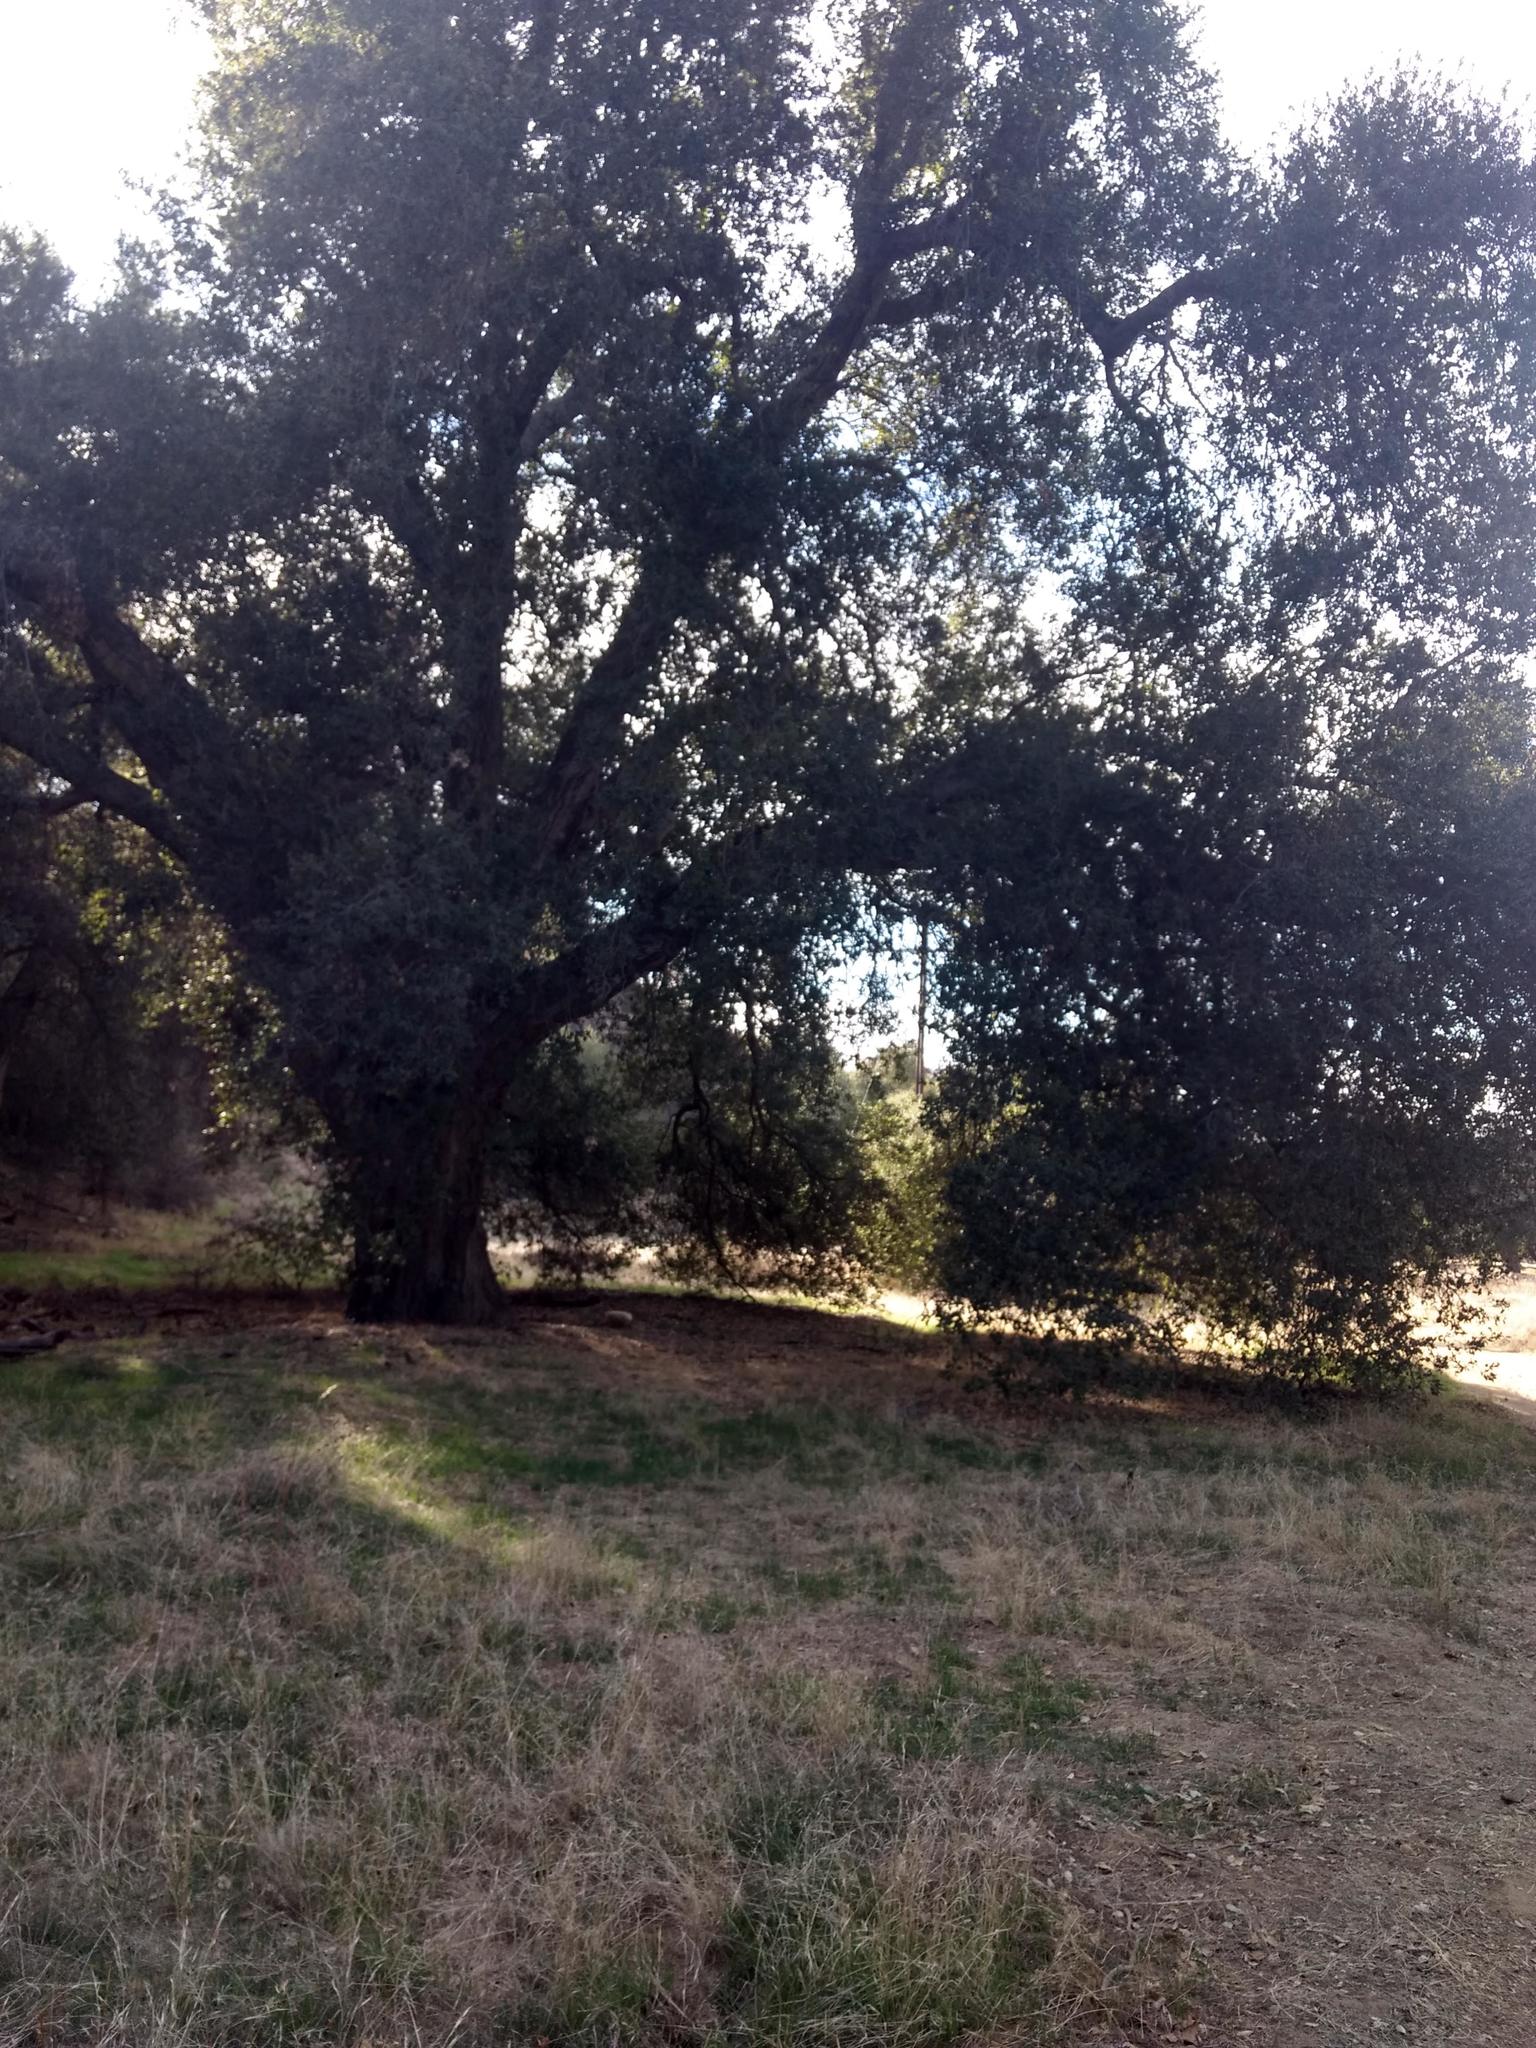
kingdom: Plantae
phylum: Tracheophyta
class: Magnoliopsida
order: Fagales
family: Fagaceae
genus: Quercus
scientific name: Quercus agrifolia
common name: California live oak
